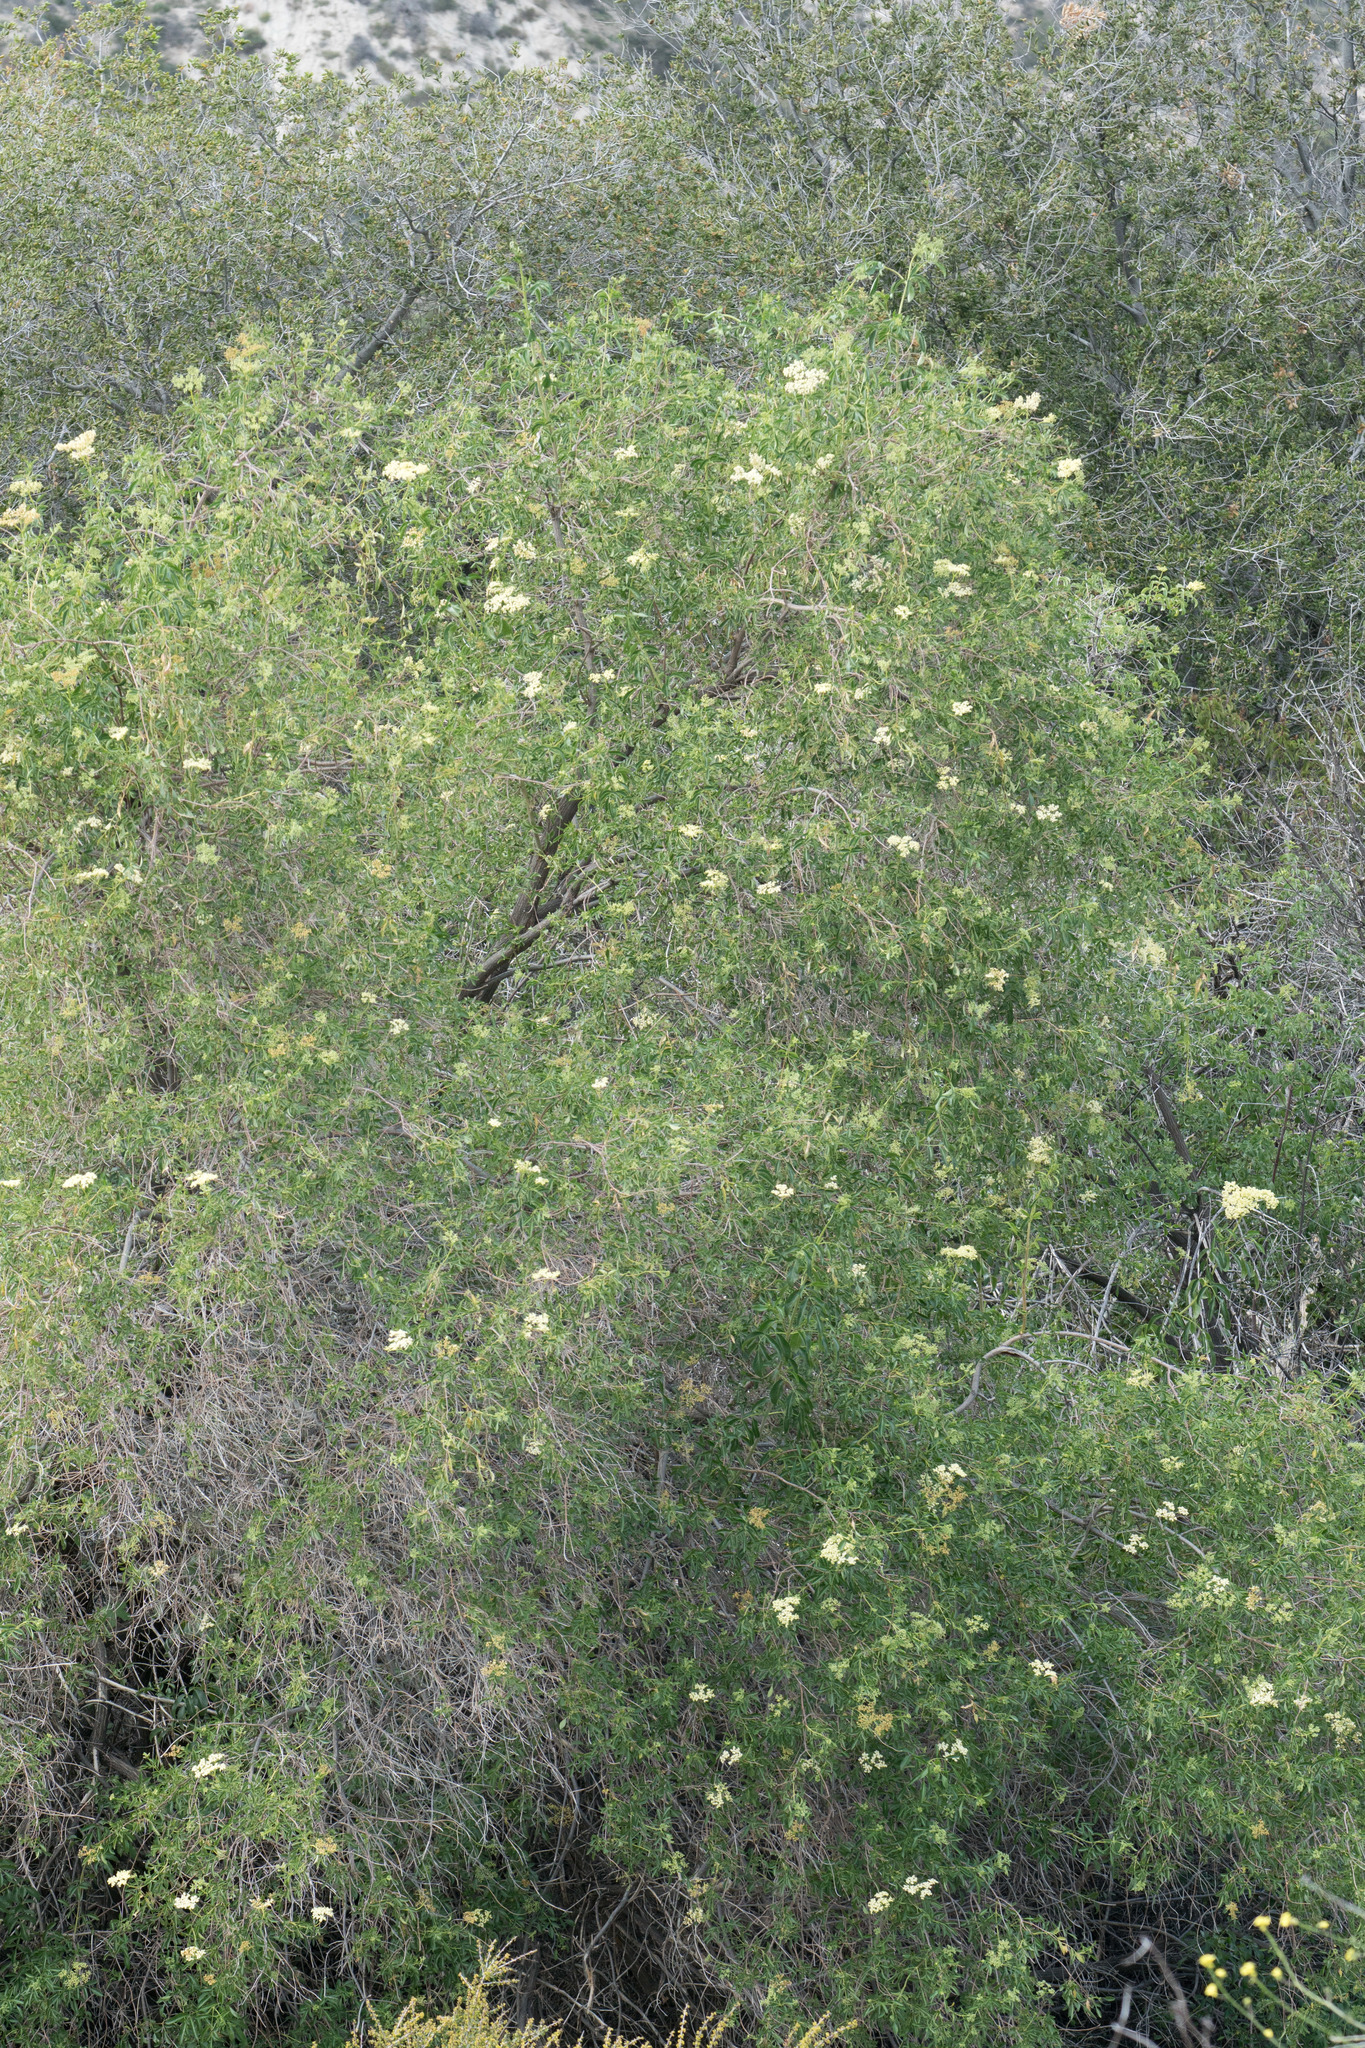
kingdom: Plantae
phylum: Tracheophyta
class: Magnoliopsida
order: Dipsacales
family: Viburnaceae
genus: Sambucus
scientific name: Sambucus cerulea
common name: Blue elder
